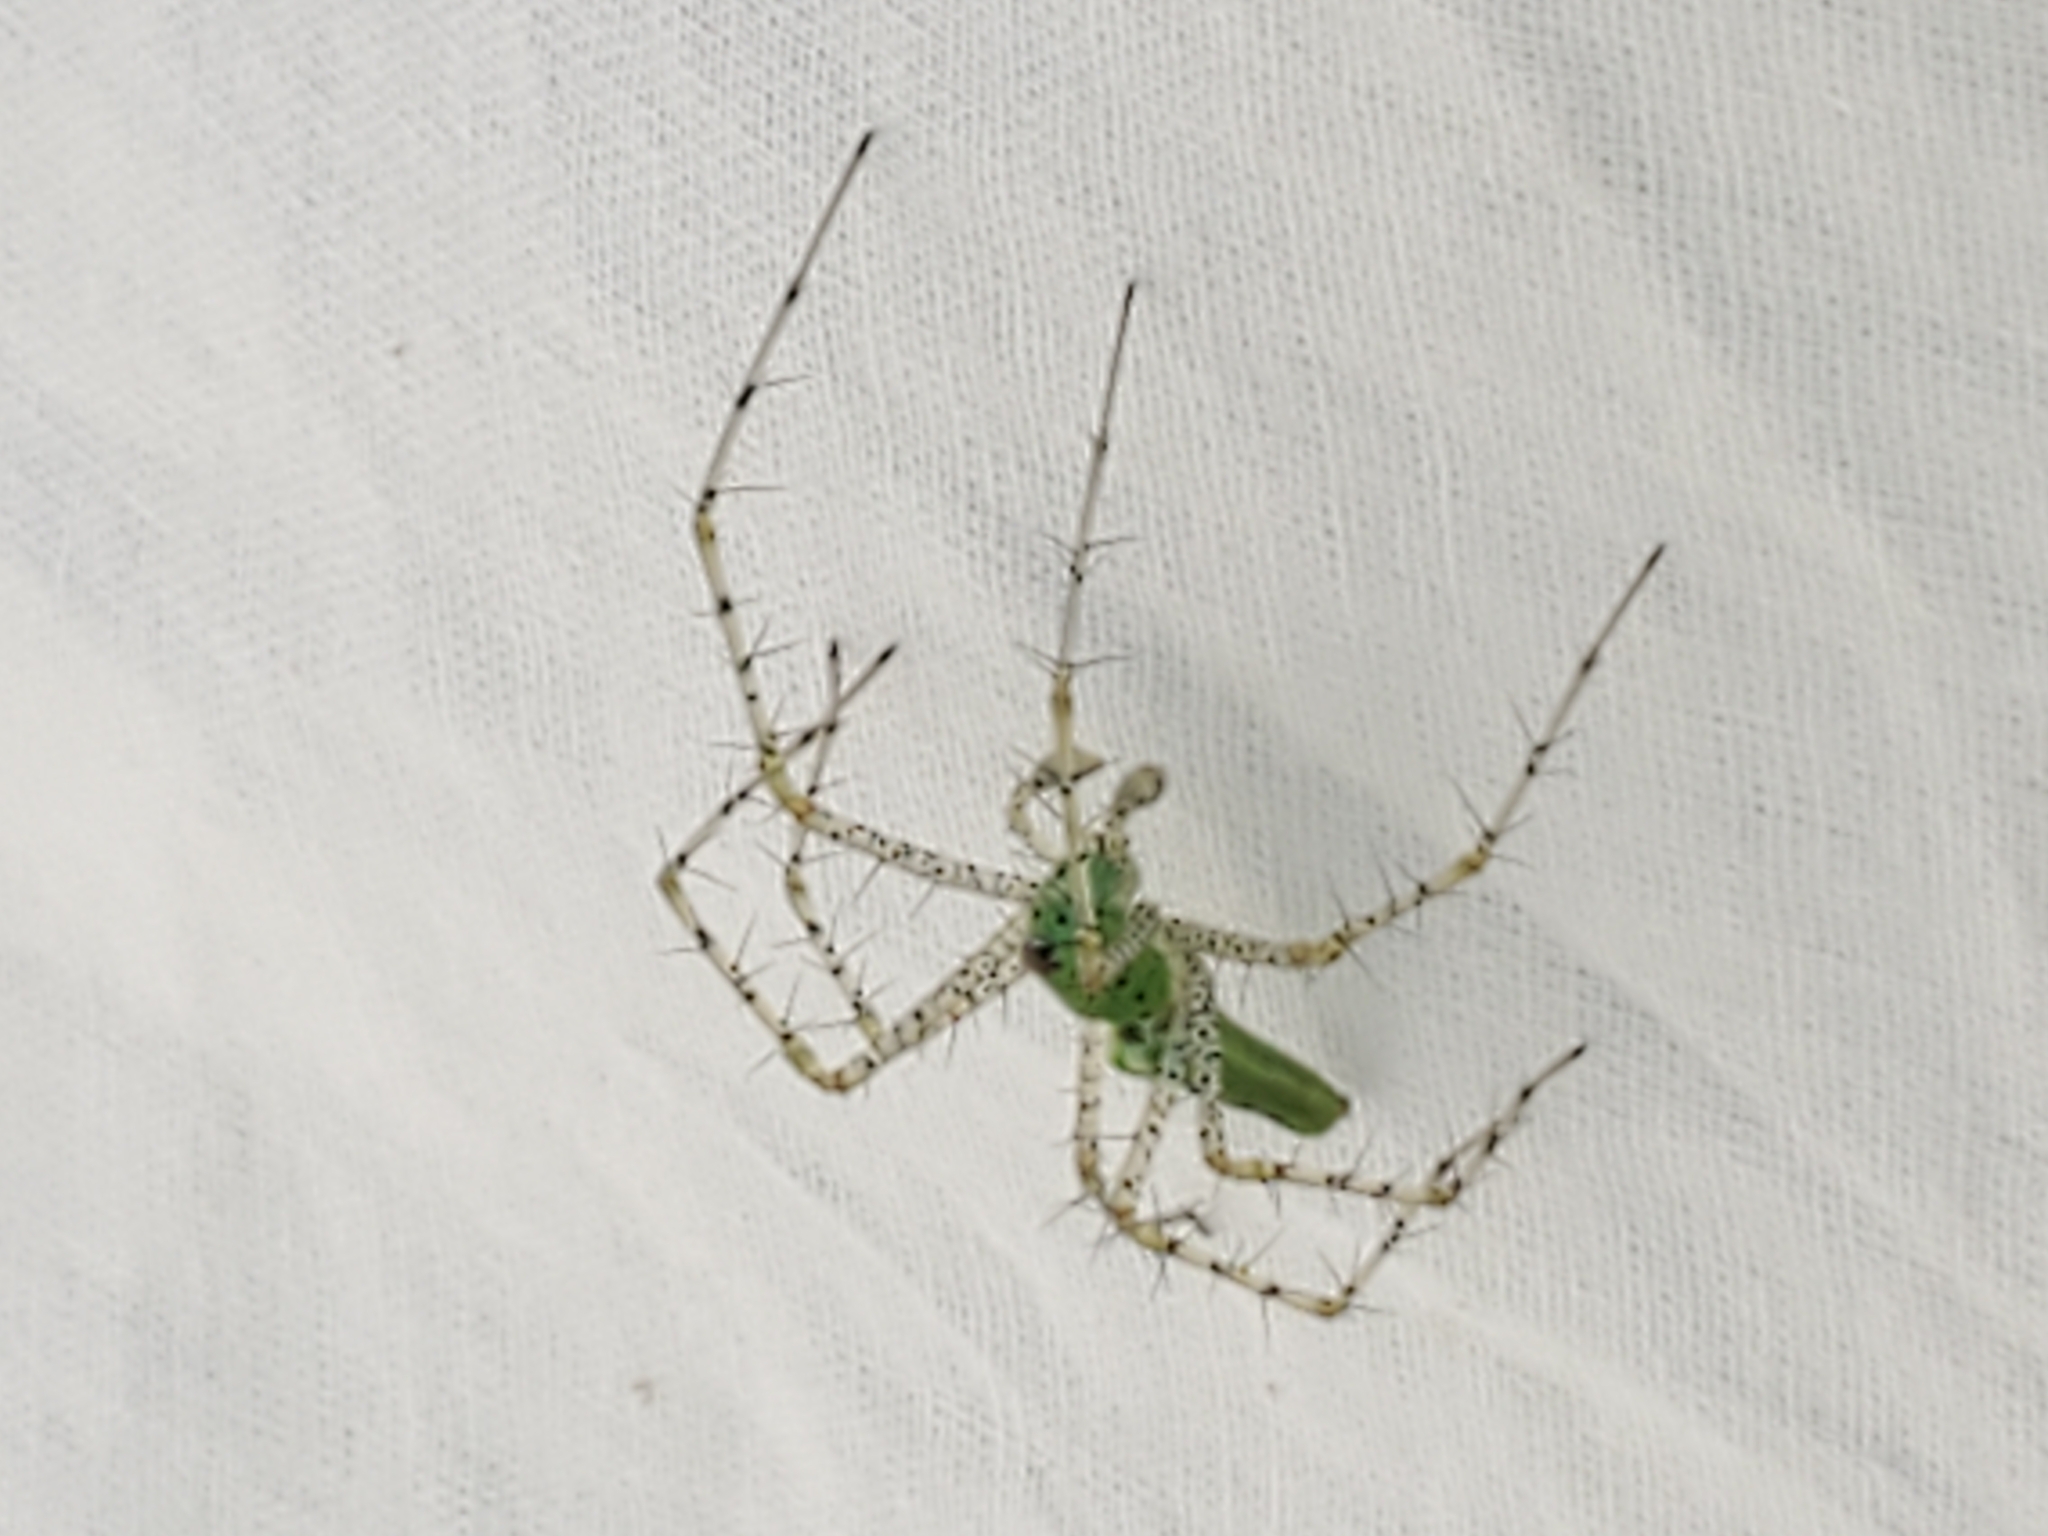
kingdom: Animalia
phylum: Arthropoda
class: Arachnida
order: Araneae
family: Oxyopidae
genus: Peucetia
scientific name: Peucetia viridans
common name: Lynx spiders
